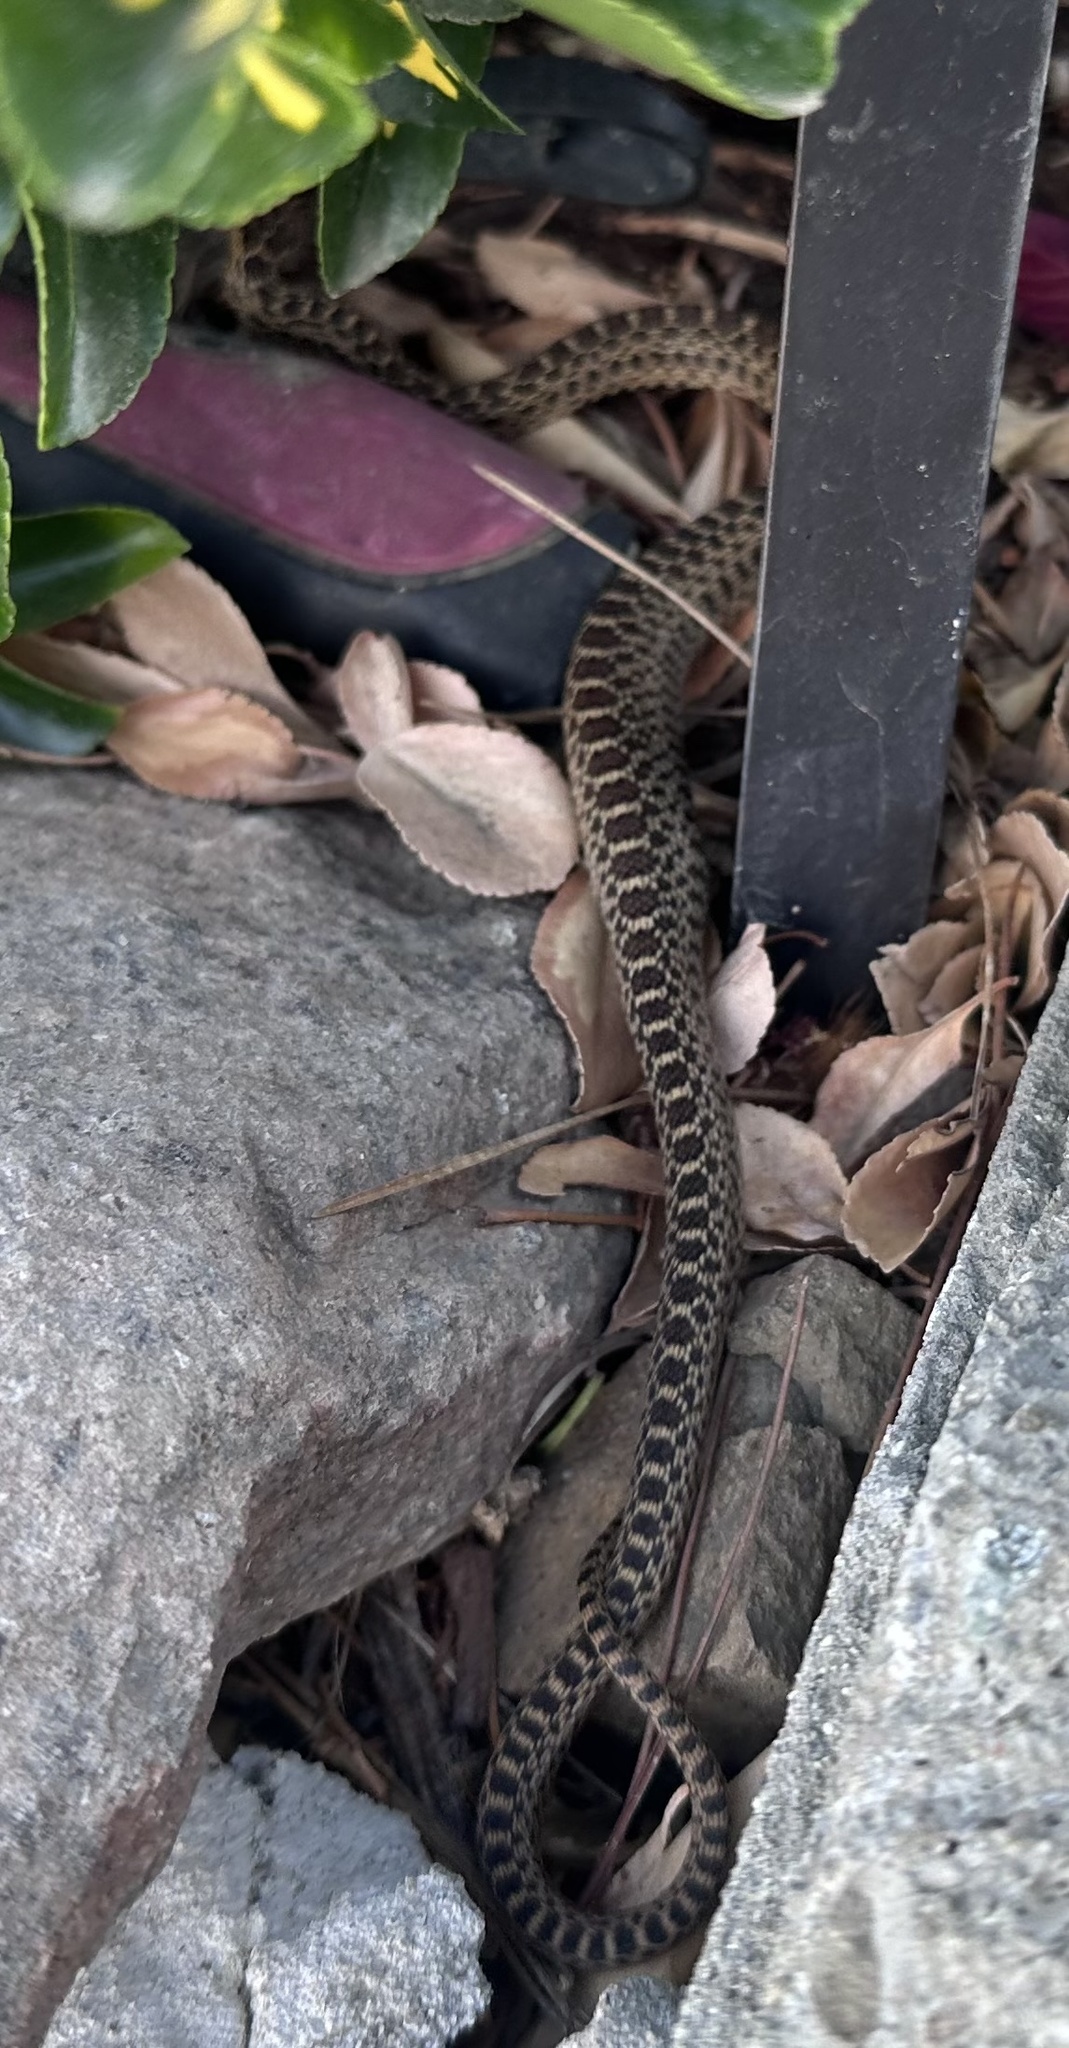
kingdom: Animalia
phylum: Chordata
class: Squamata
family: Colubridae
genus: Pituophis
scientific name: Pituophis catenifer
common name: Gopher snake
